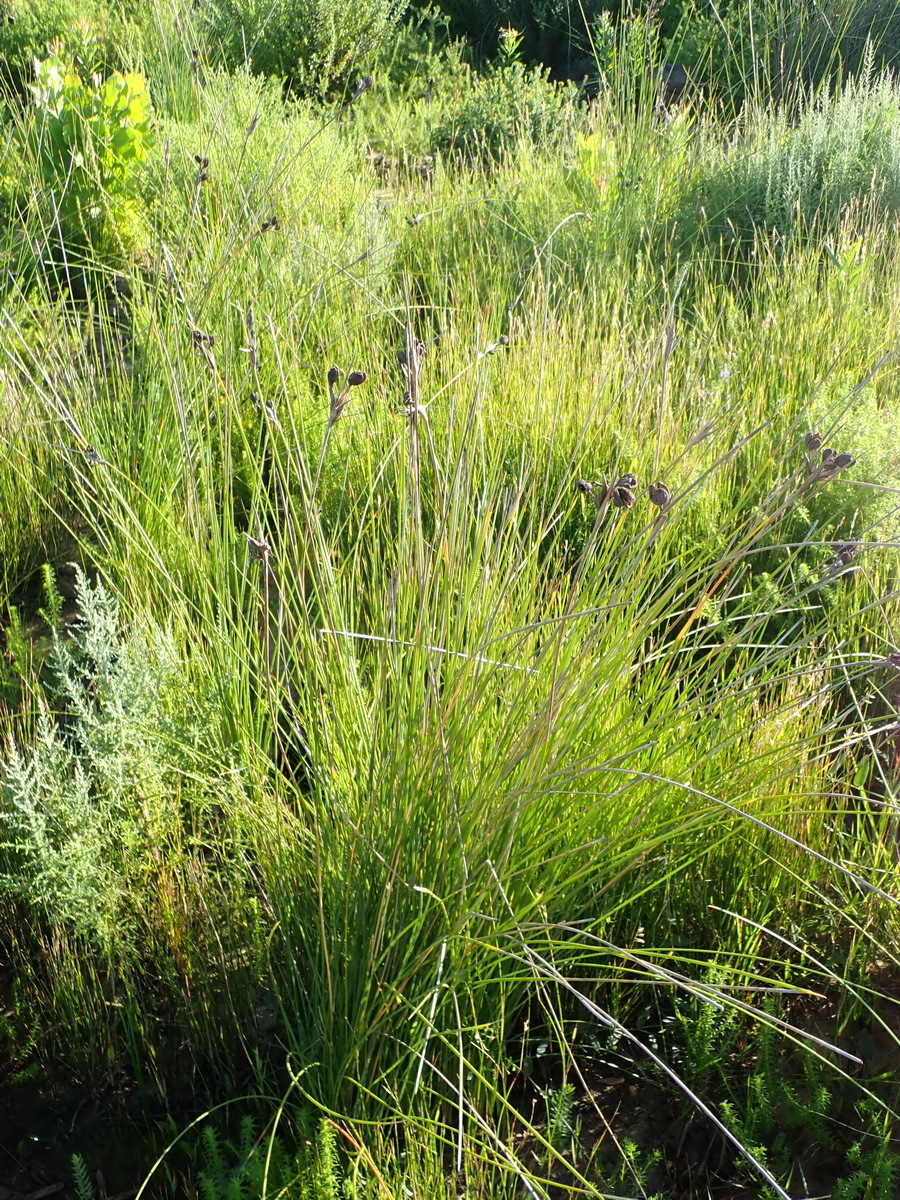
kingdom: Plantae
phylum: Tracheophyta
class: Liliopsida
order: Asparagales
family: Iridaceae
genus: Bobartia
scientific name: Bobartia aphylla
